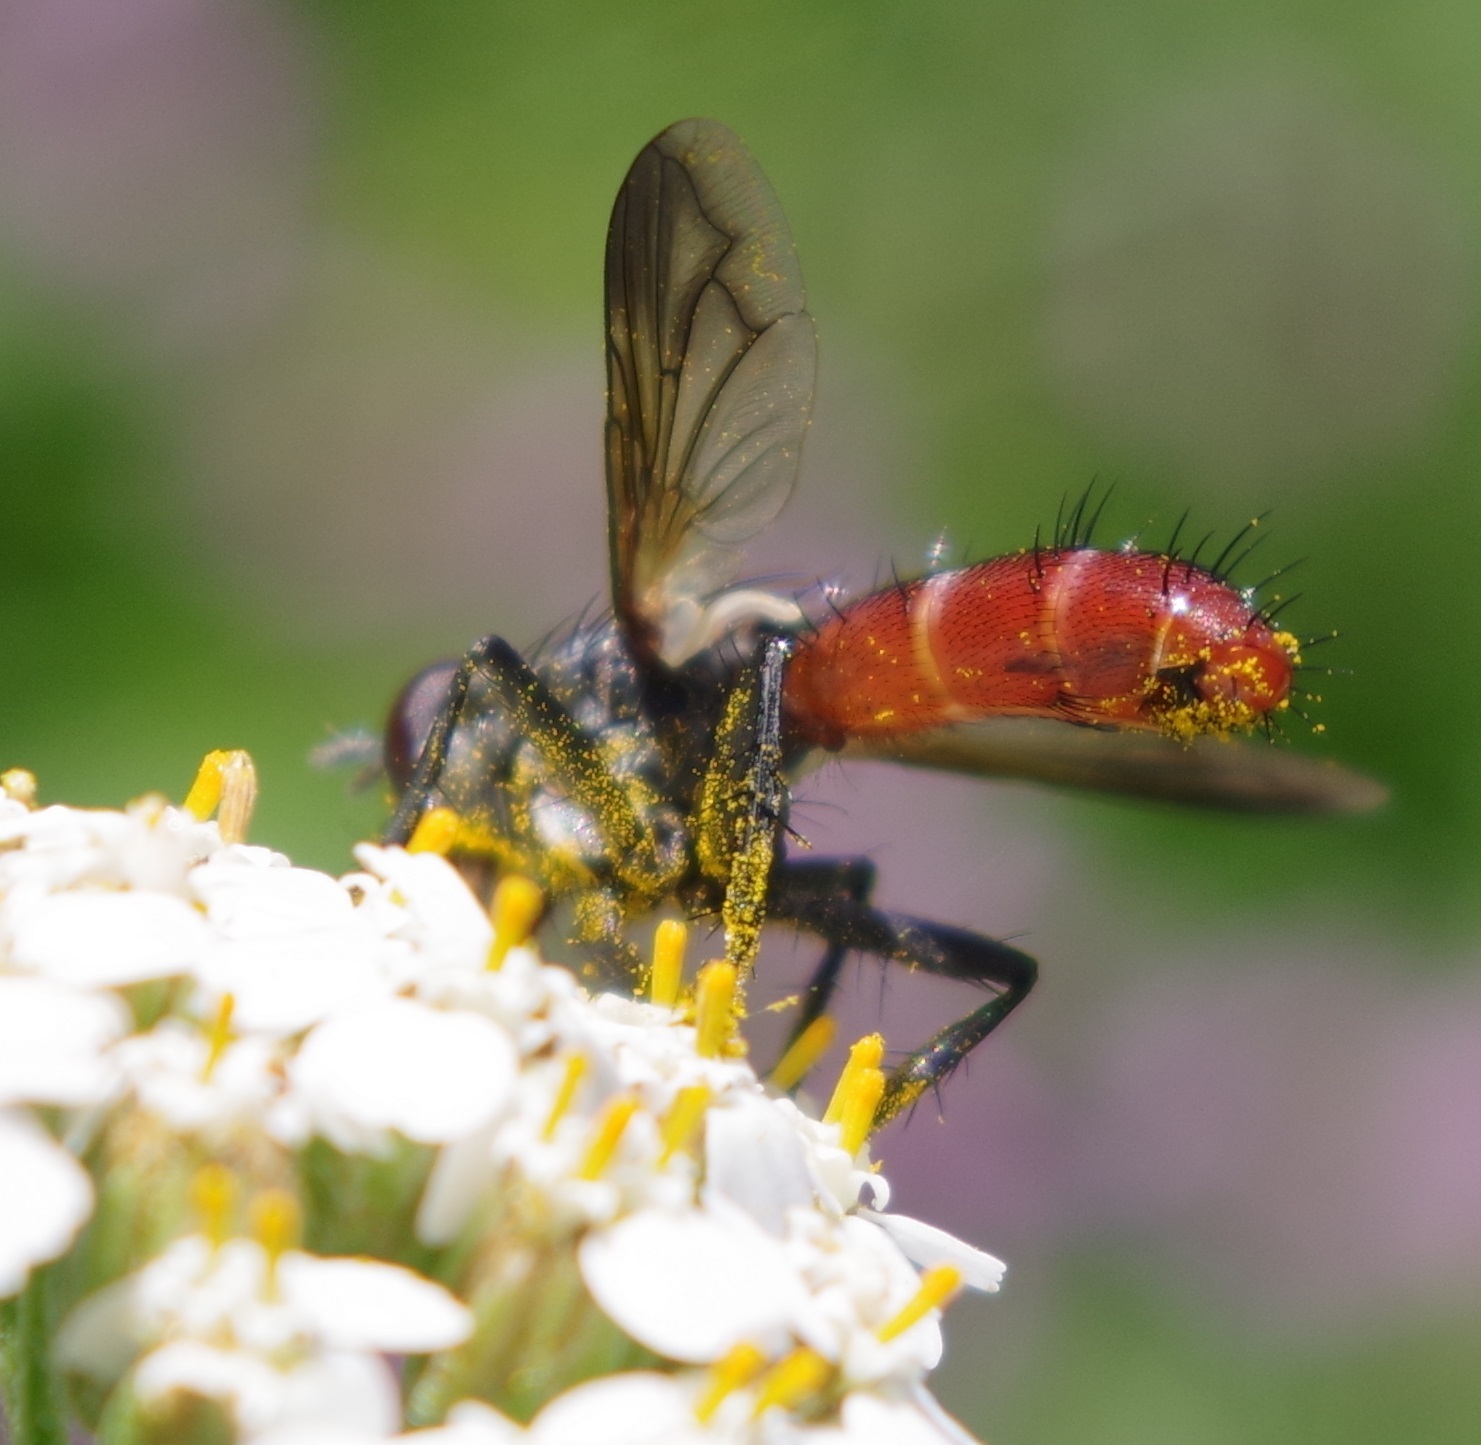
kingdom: Animalia
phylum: Arthropoda
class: Insecta
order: Diptera
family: Tachinidae
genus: Cylindromyia
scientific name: Cylindromyia bicolor
